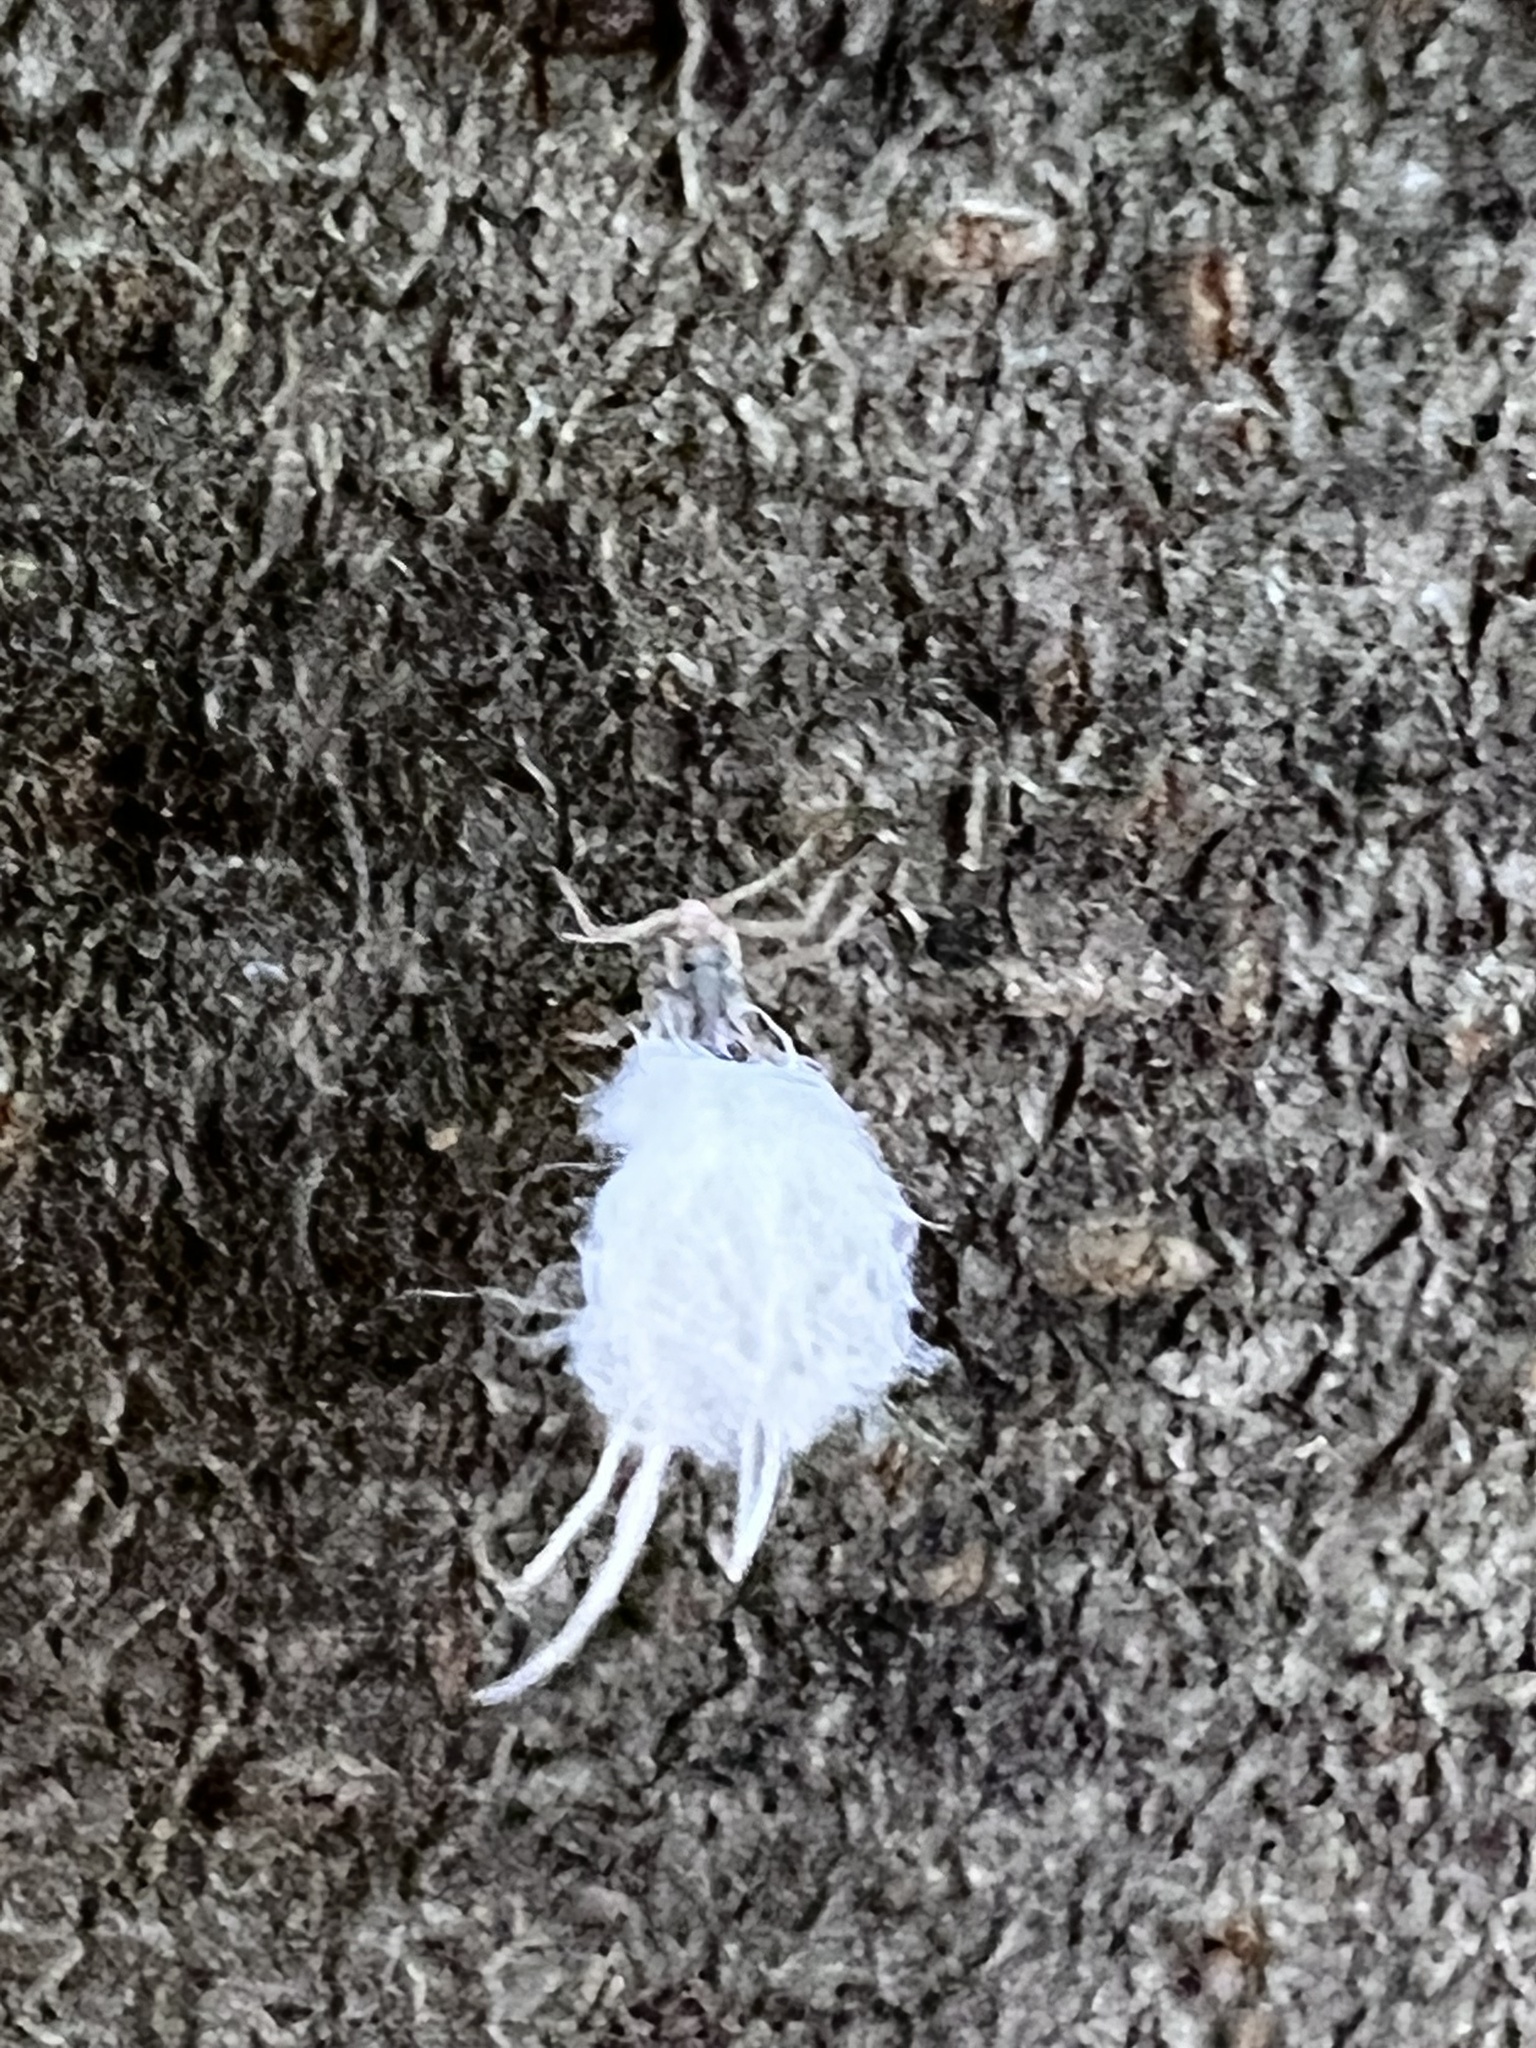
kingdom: Animalia
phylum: Arthropoda
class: Insecta
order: Hemiptera
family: Aphididae
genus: Grylloprociphilus
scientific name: Grylloprociphilus imbricator
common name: Beech blight aphid
